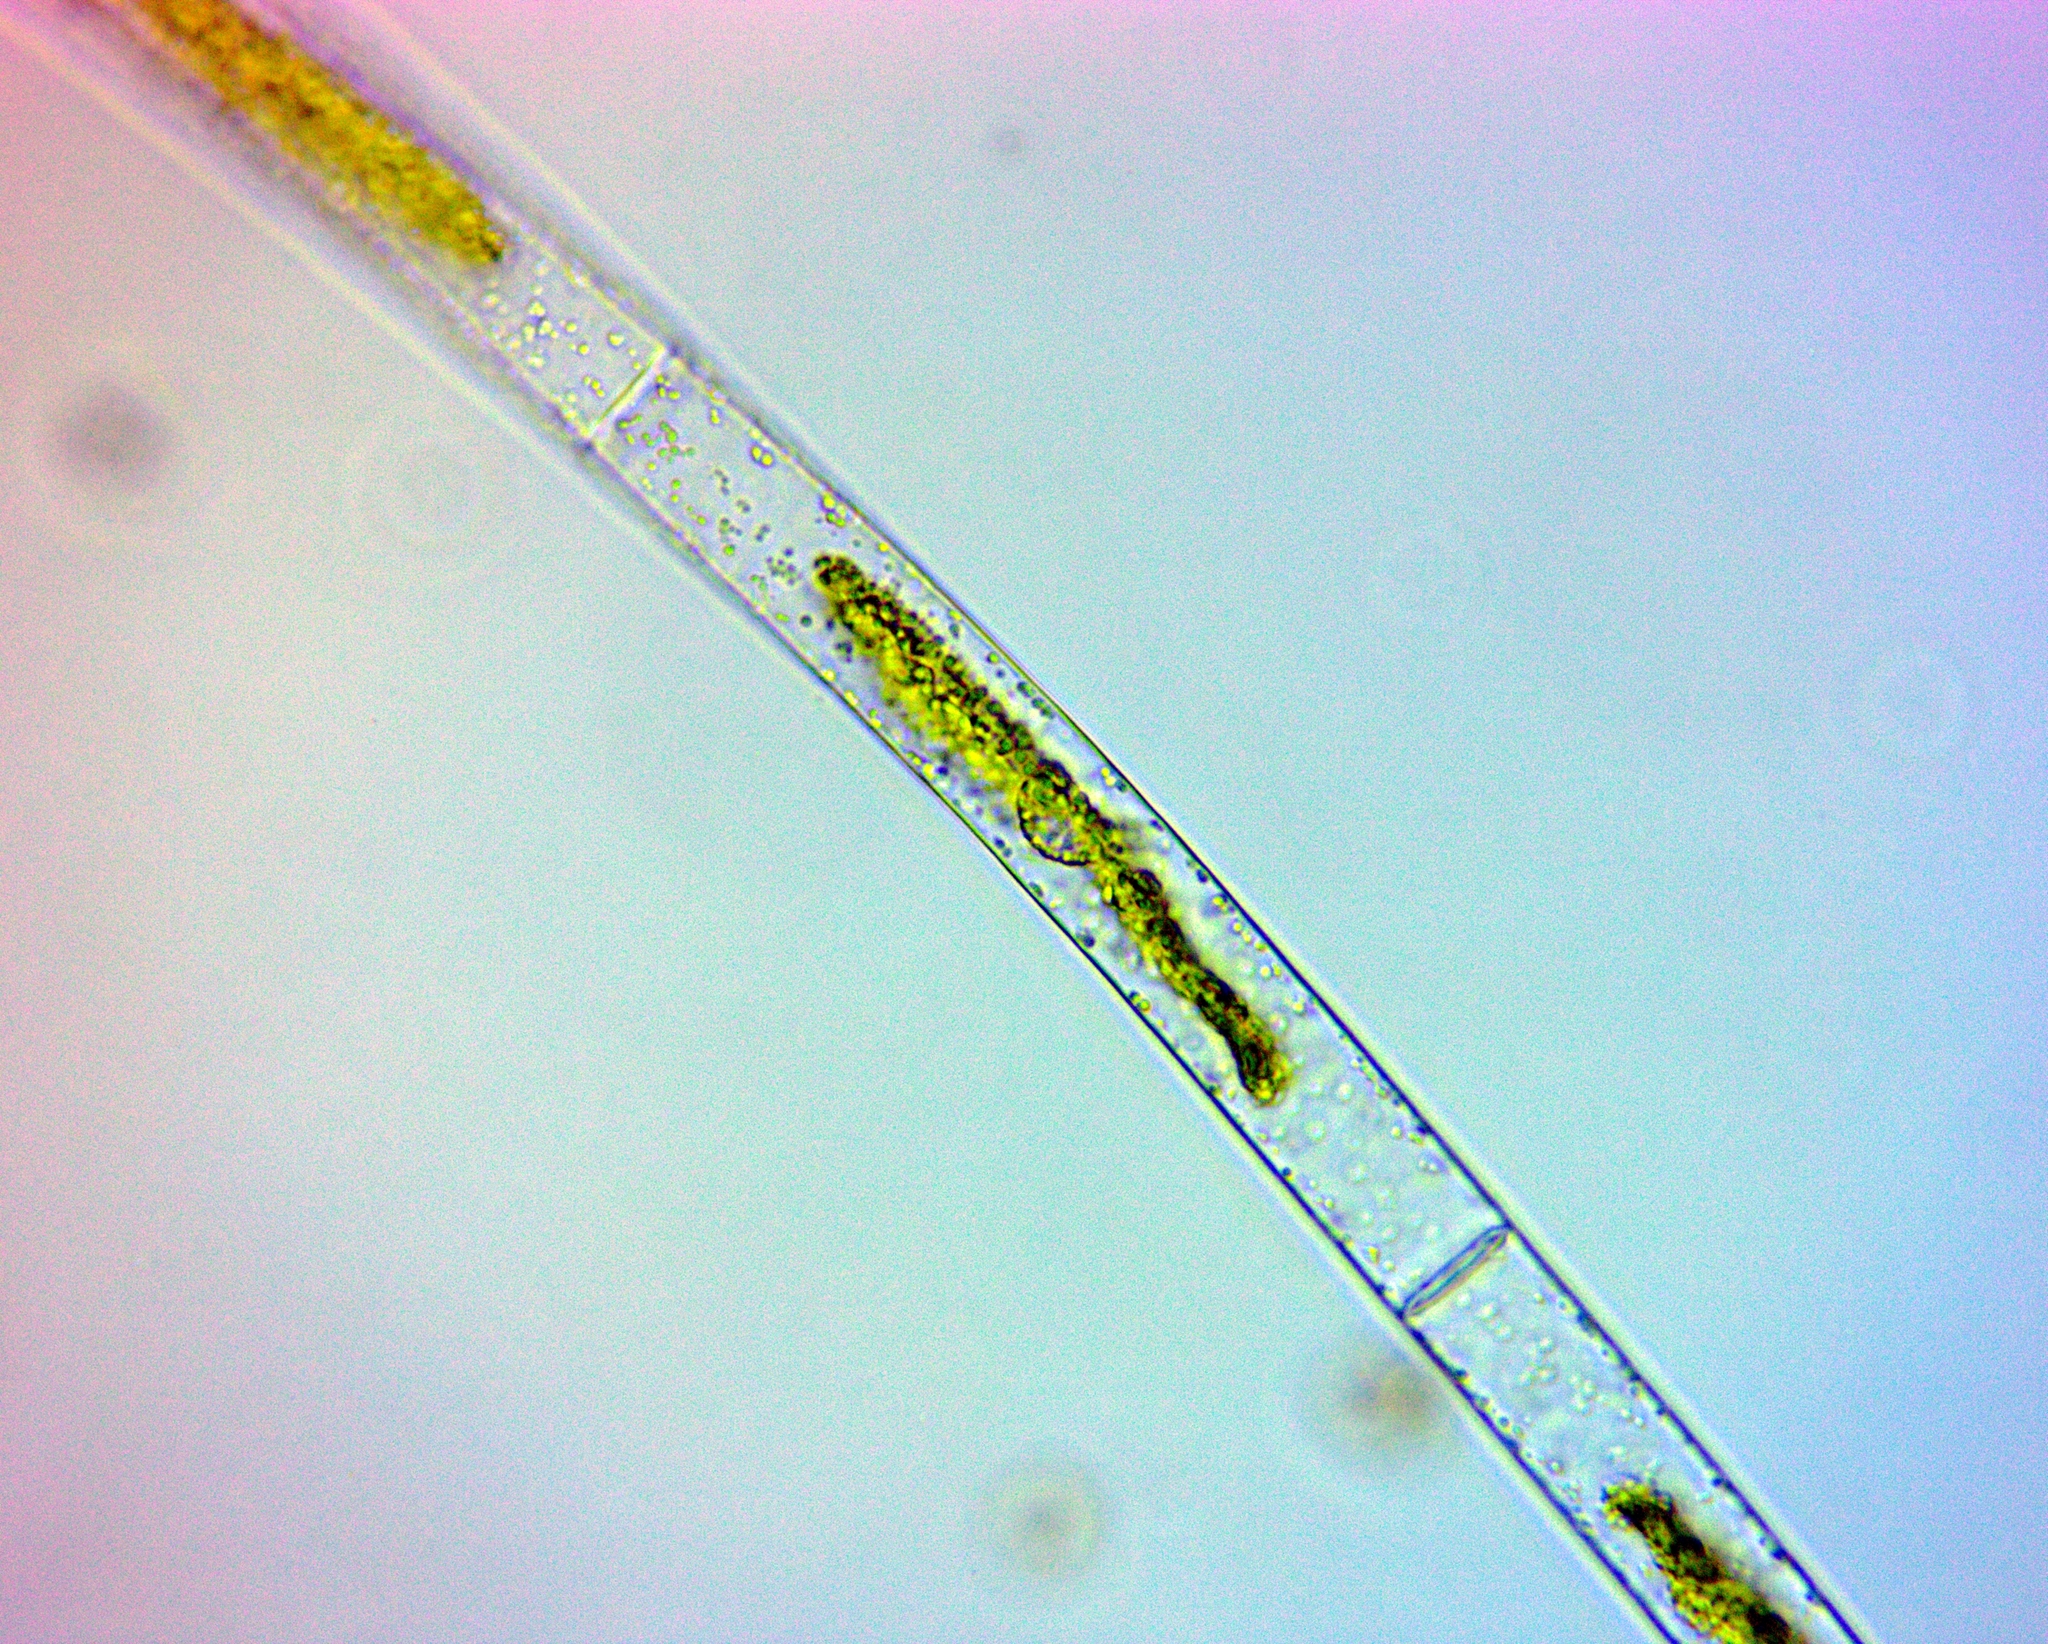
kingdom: Plantae
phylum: Charophyta
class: Zygnematophyceae
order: Zygnematales
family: Zygnemataceae
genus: Mougeotia
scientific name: Mougeotia
